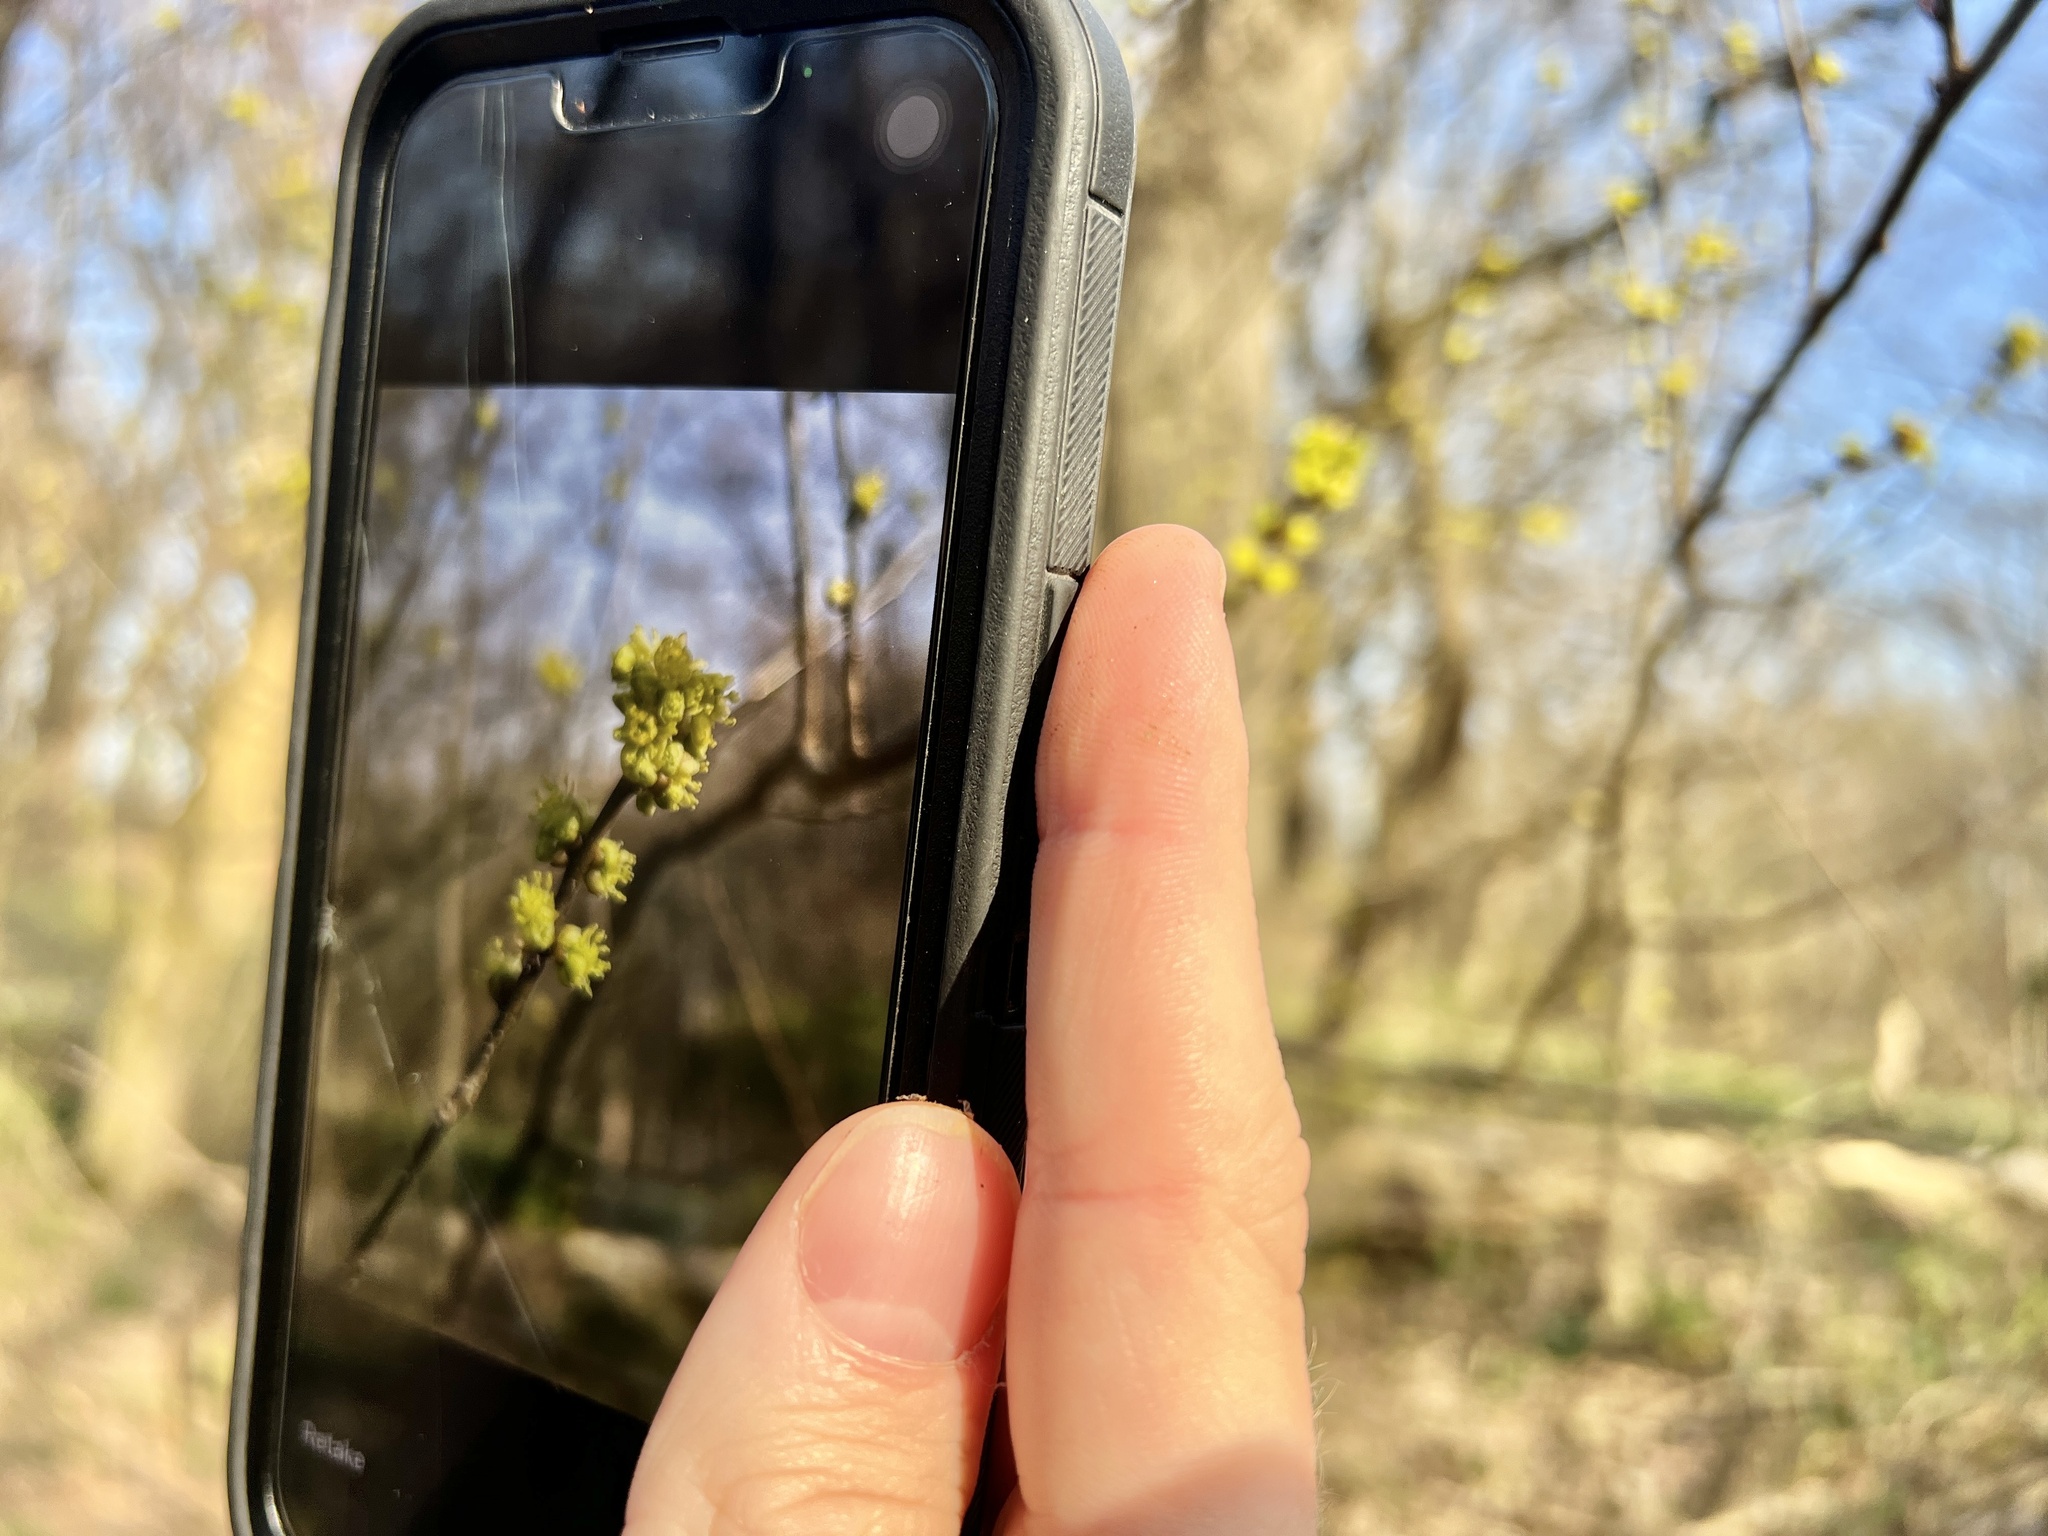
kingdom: Plantae
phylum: Tracheophyta
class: Magnoliopsida
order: Laurales
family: Lauraceae
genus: Lindera
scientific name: Lindera benzoin
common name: Spicebush
